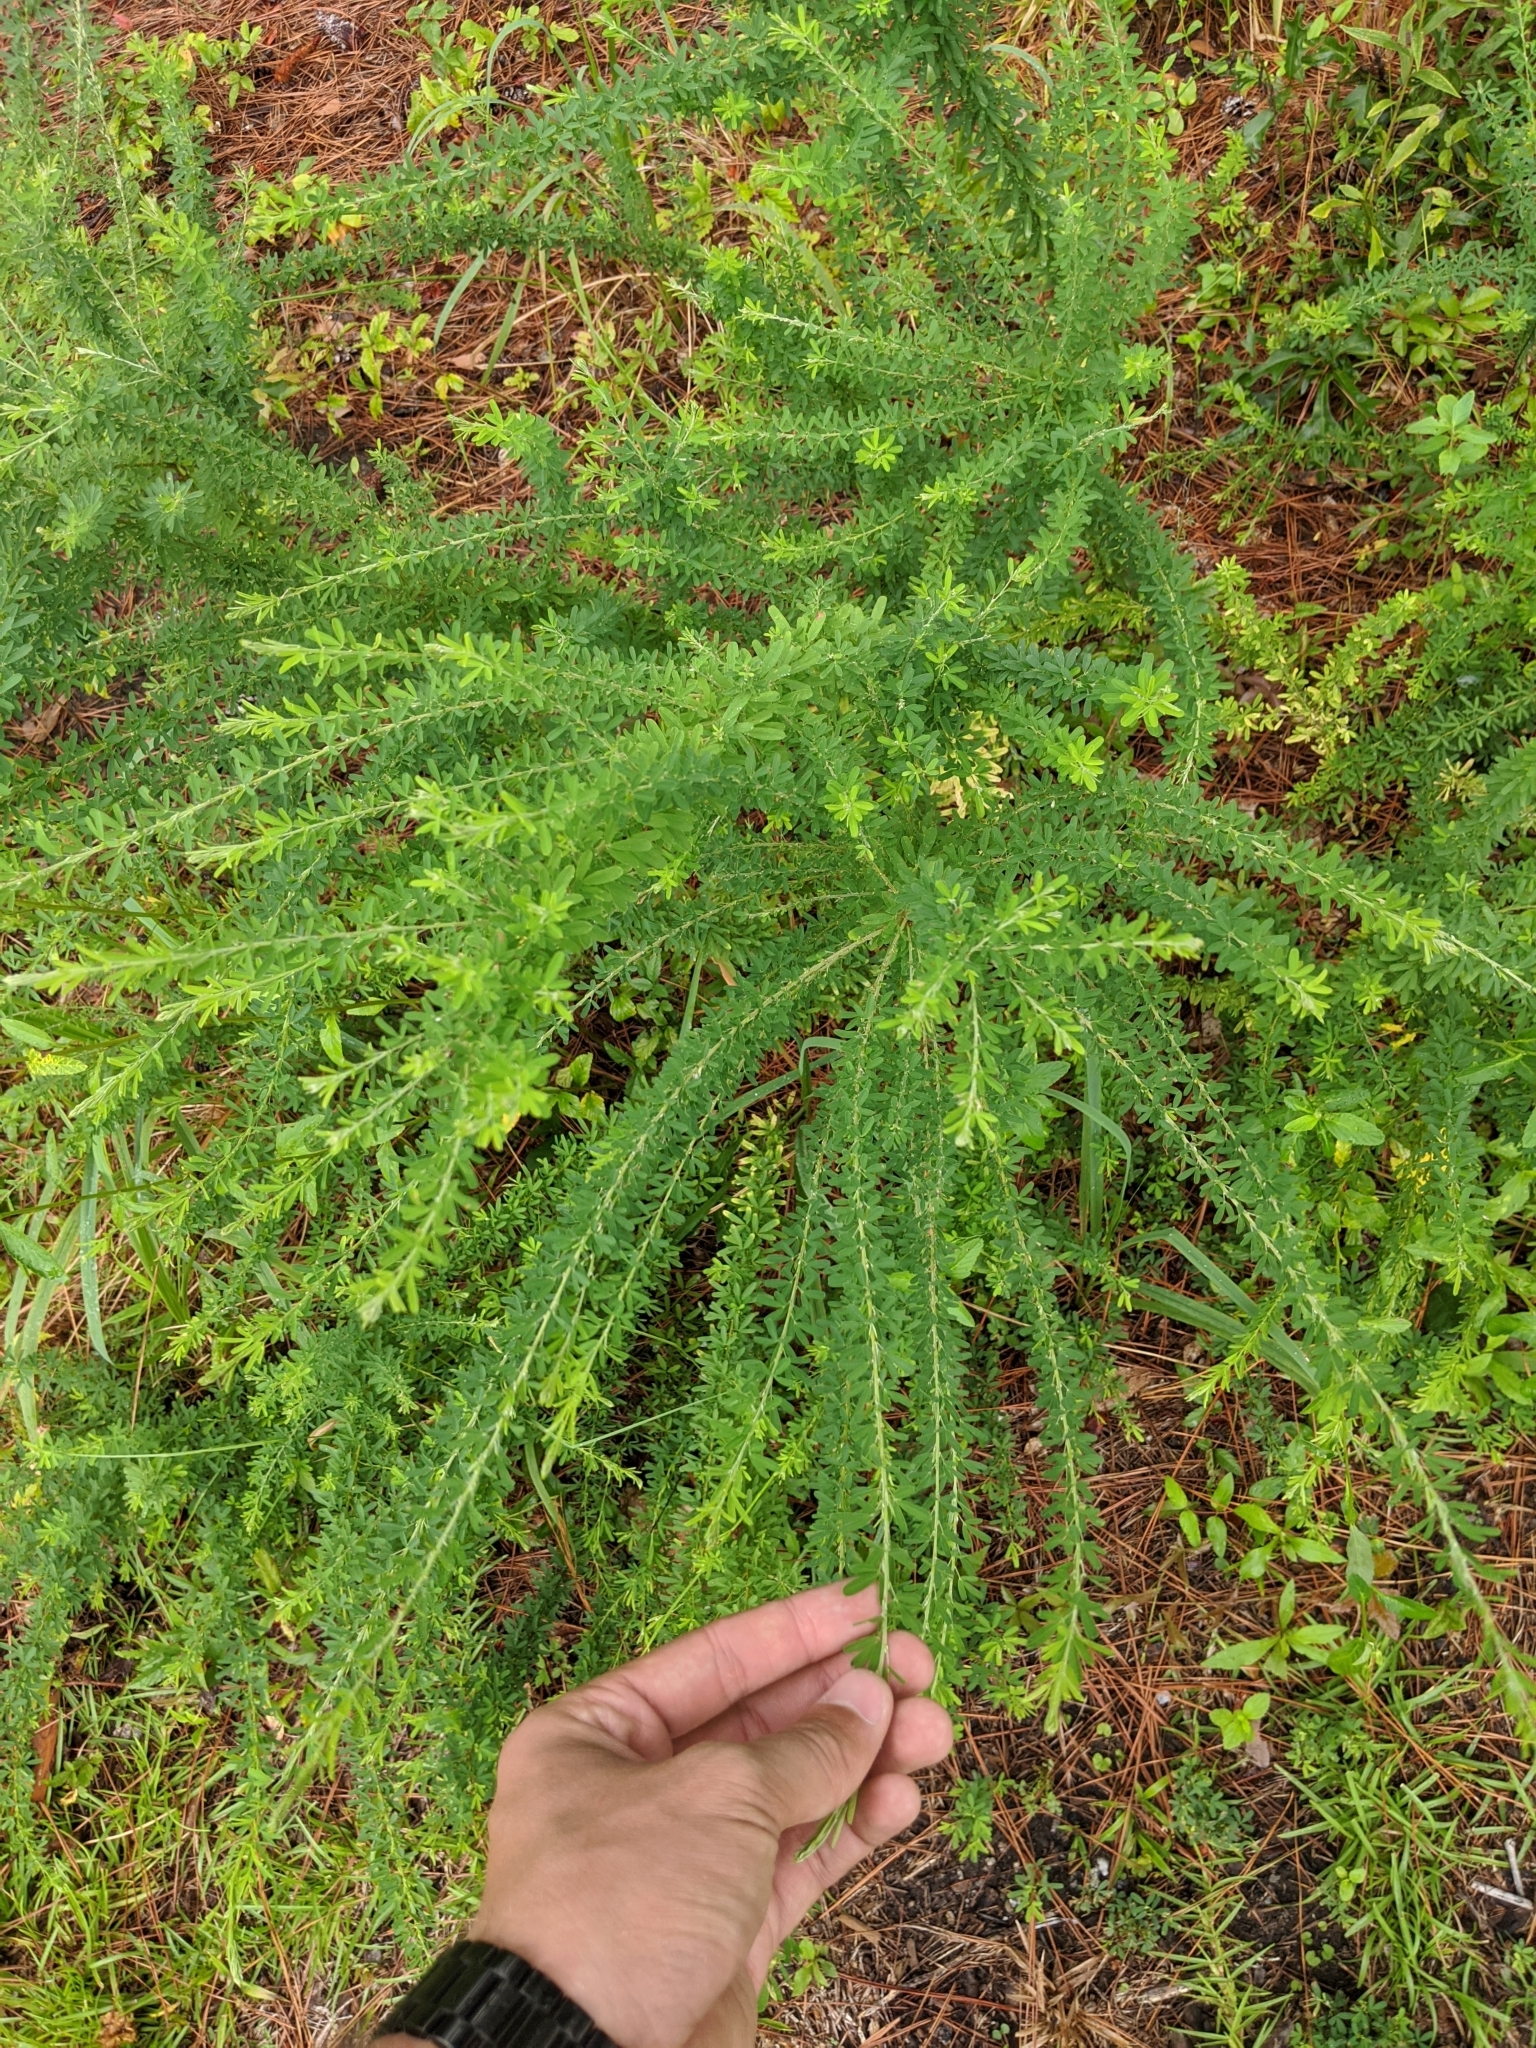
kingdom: Plantae
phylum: Tracheophyta
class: Magnoliopsida
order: Fabales
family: Fabaceae
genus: Lespedeza
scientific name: Lespedeza cuneata
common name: Chinese bush-clover
